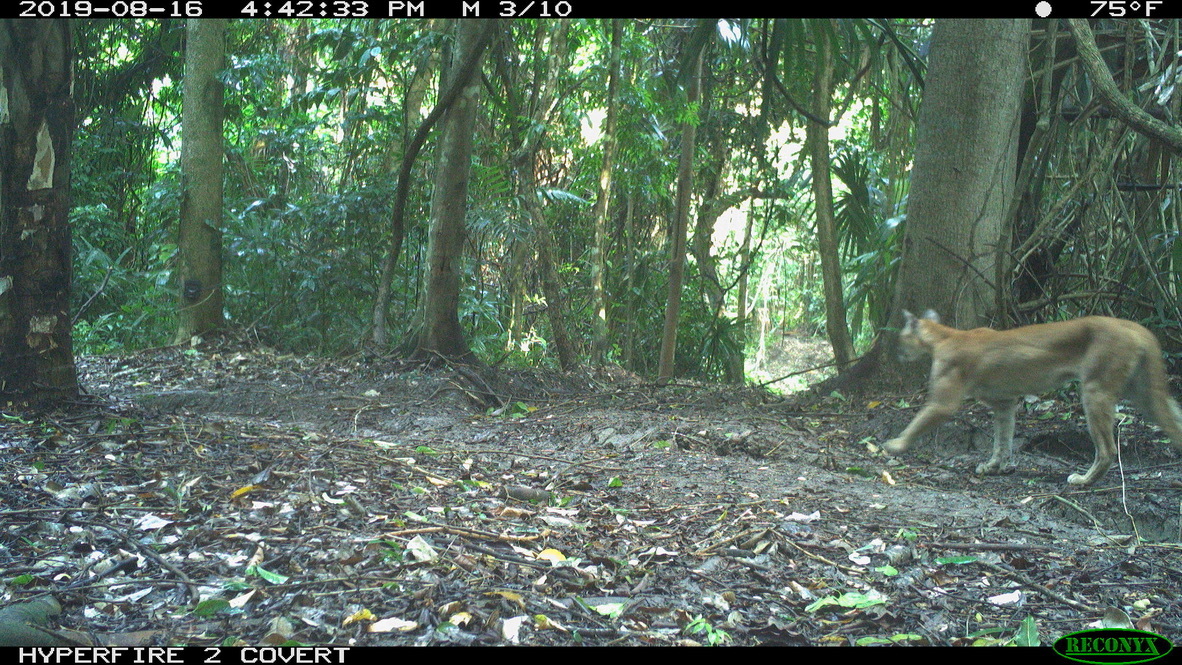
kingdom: Animalia
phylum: Chordata
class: Mammalia
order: Carnivora
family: Felidae
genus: Puma
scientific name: Puma concolor
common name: Puma
